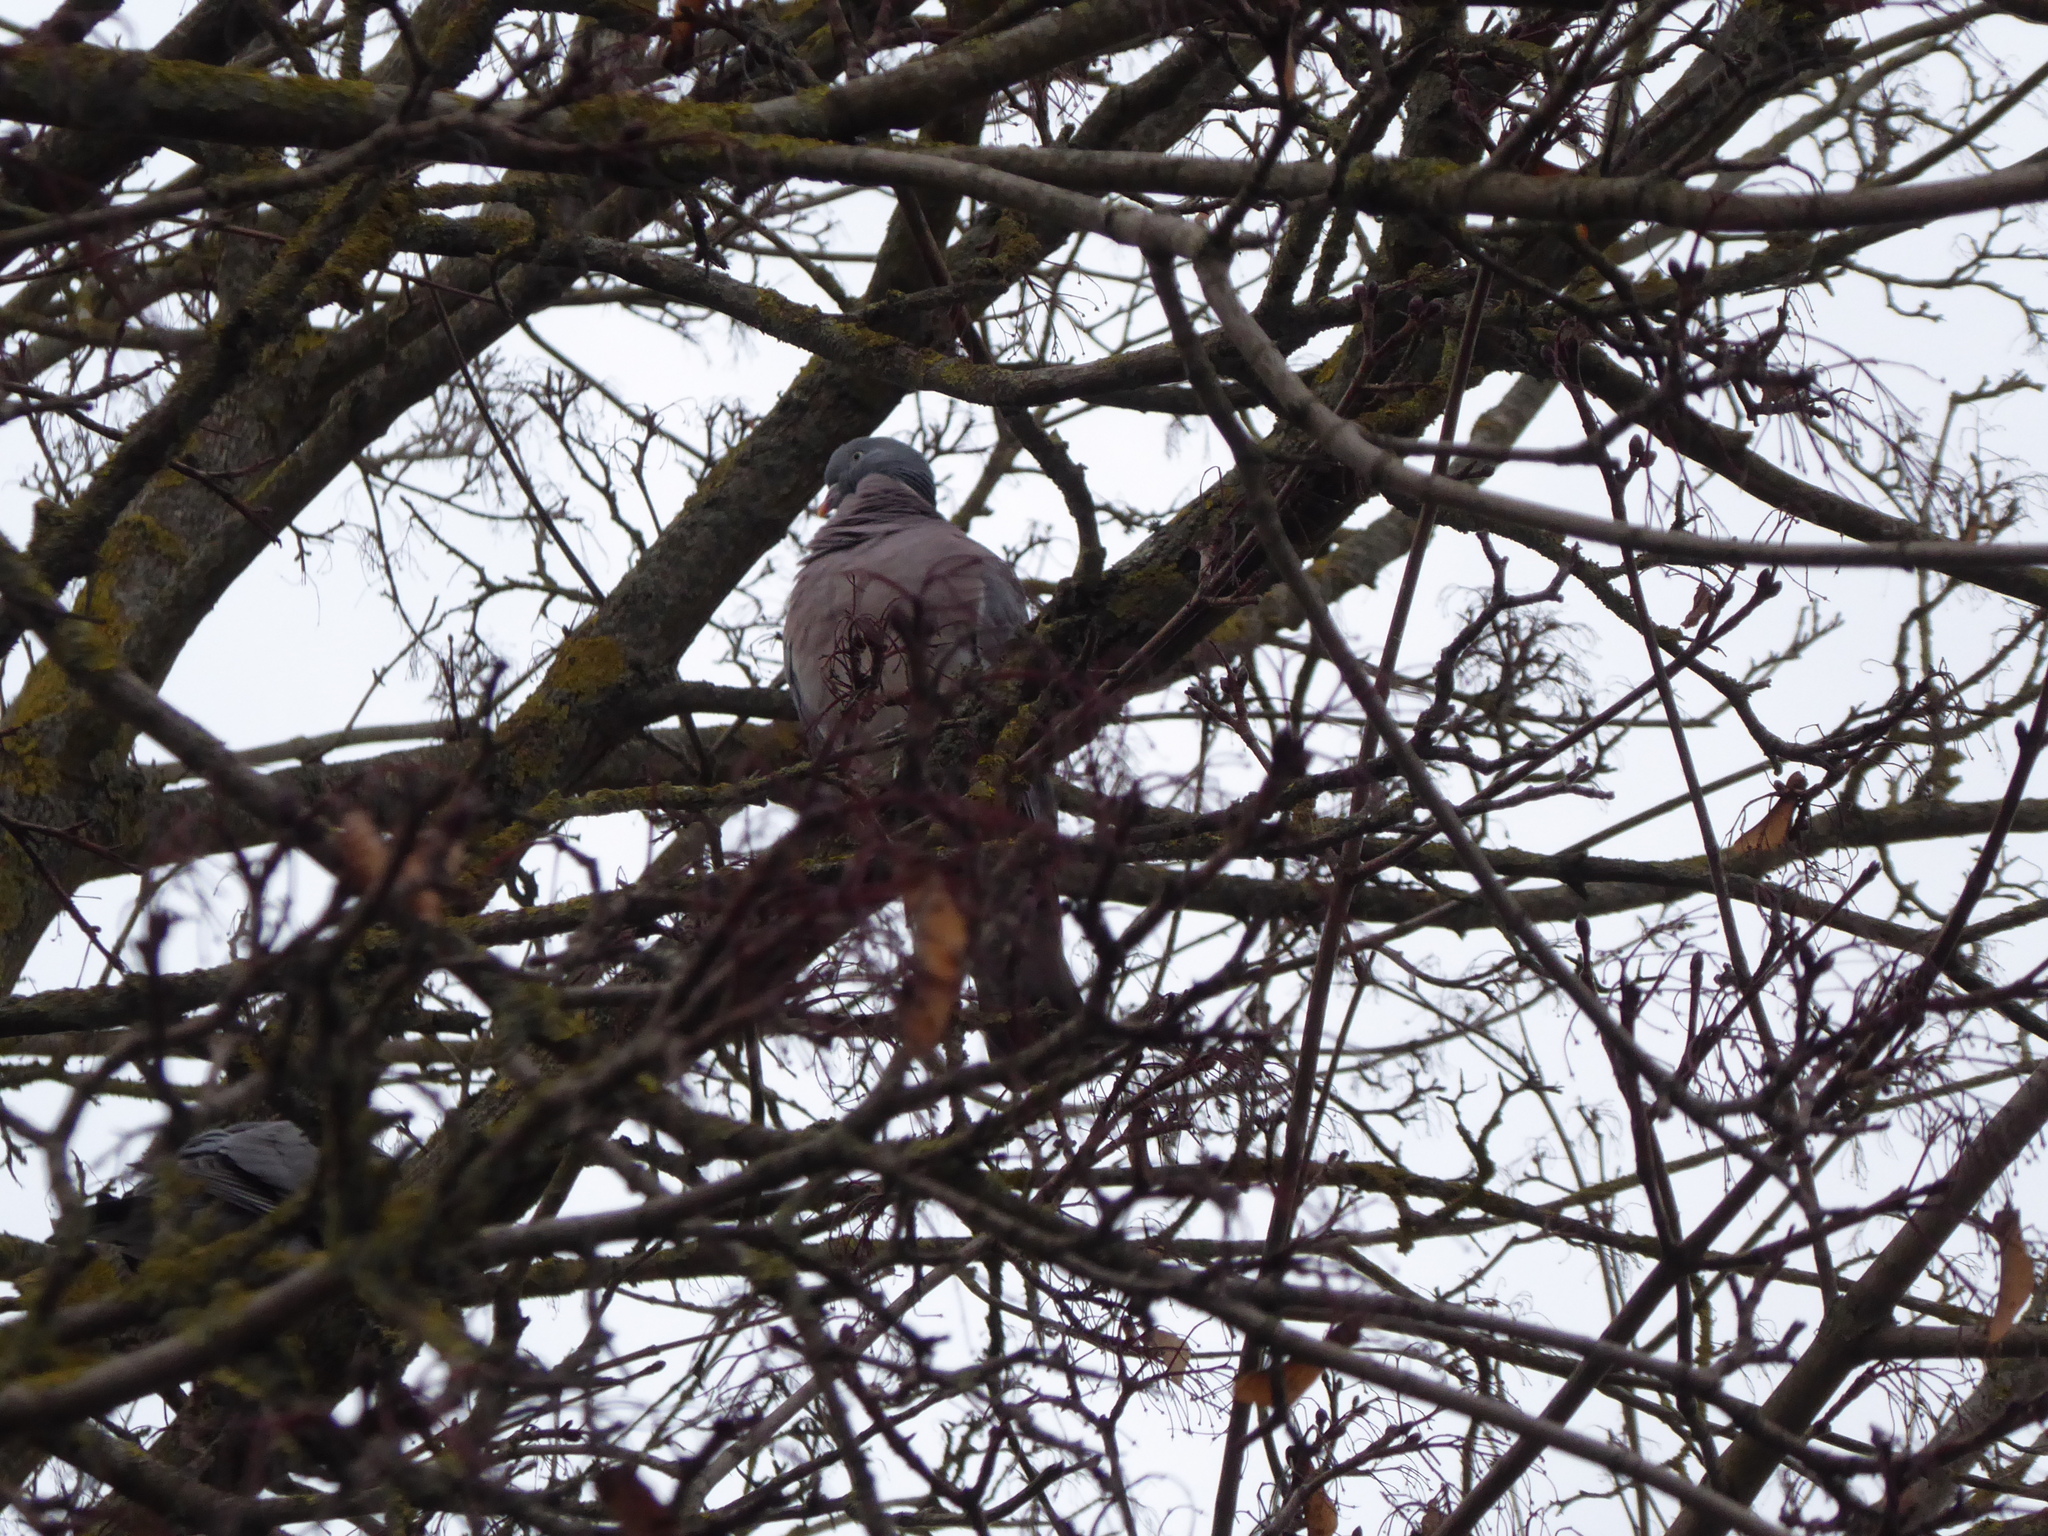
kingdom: Animalia
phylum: Chordata
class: Aves
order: Columbiformes
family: Columbidae
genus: Columba
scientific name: Columba palumbus
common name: Common wood pigeon
